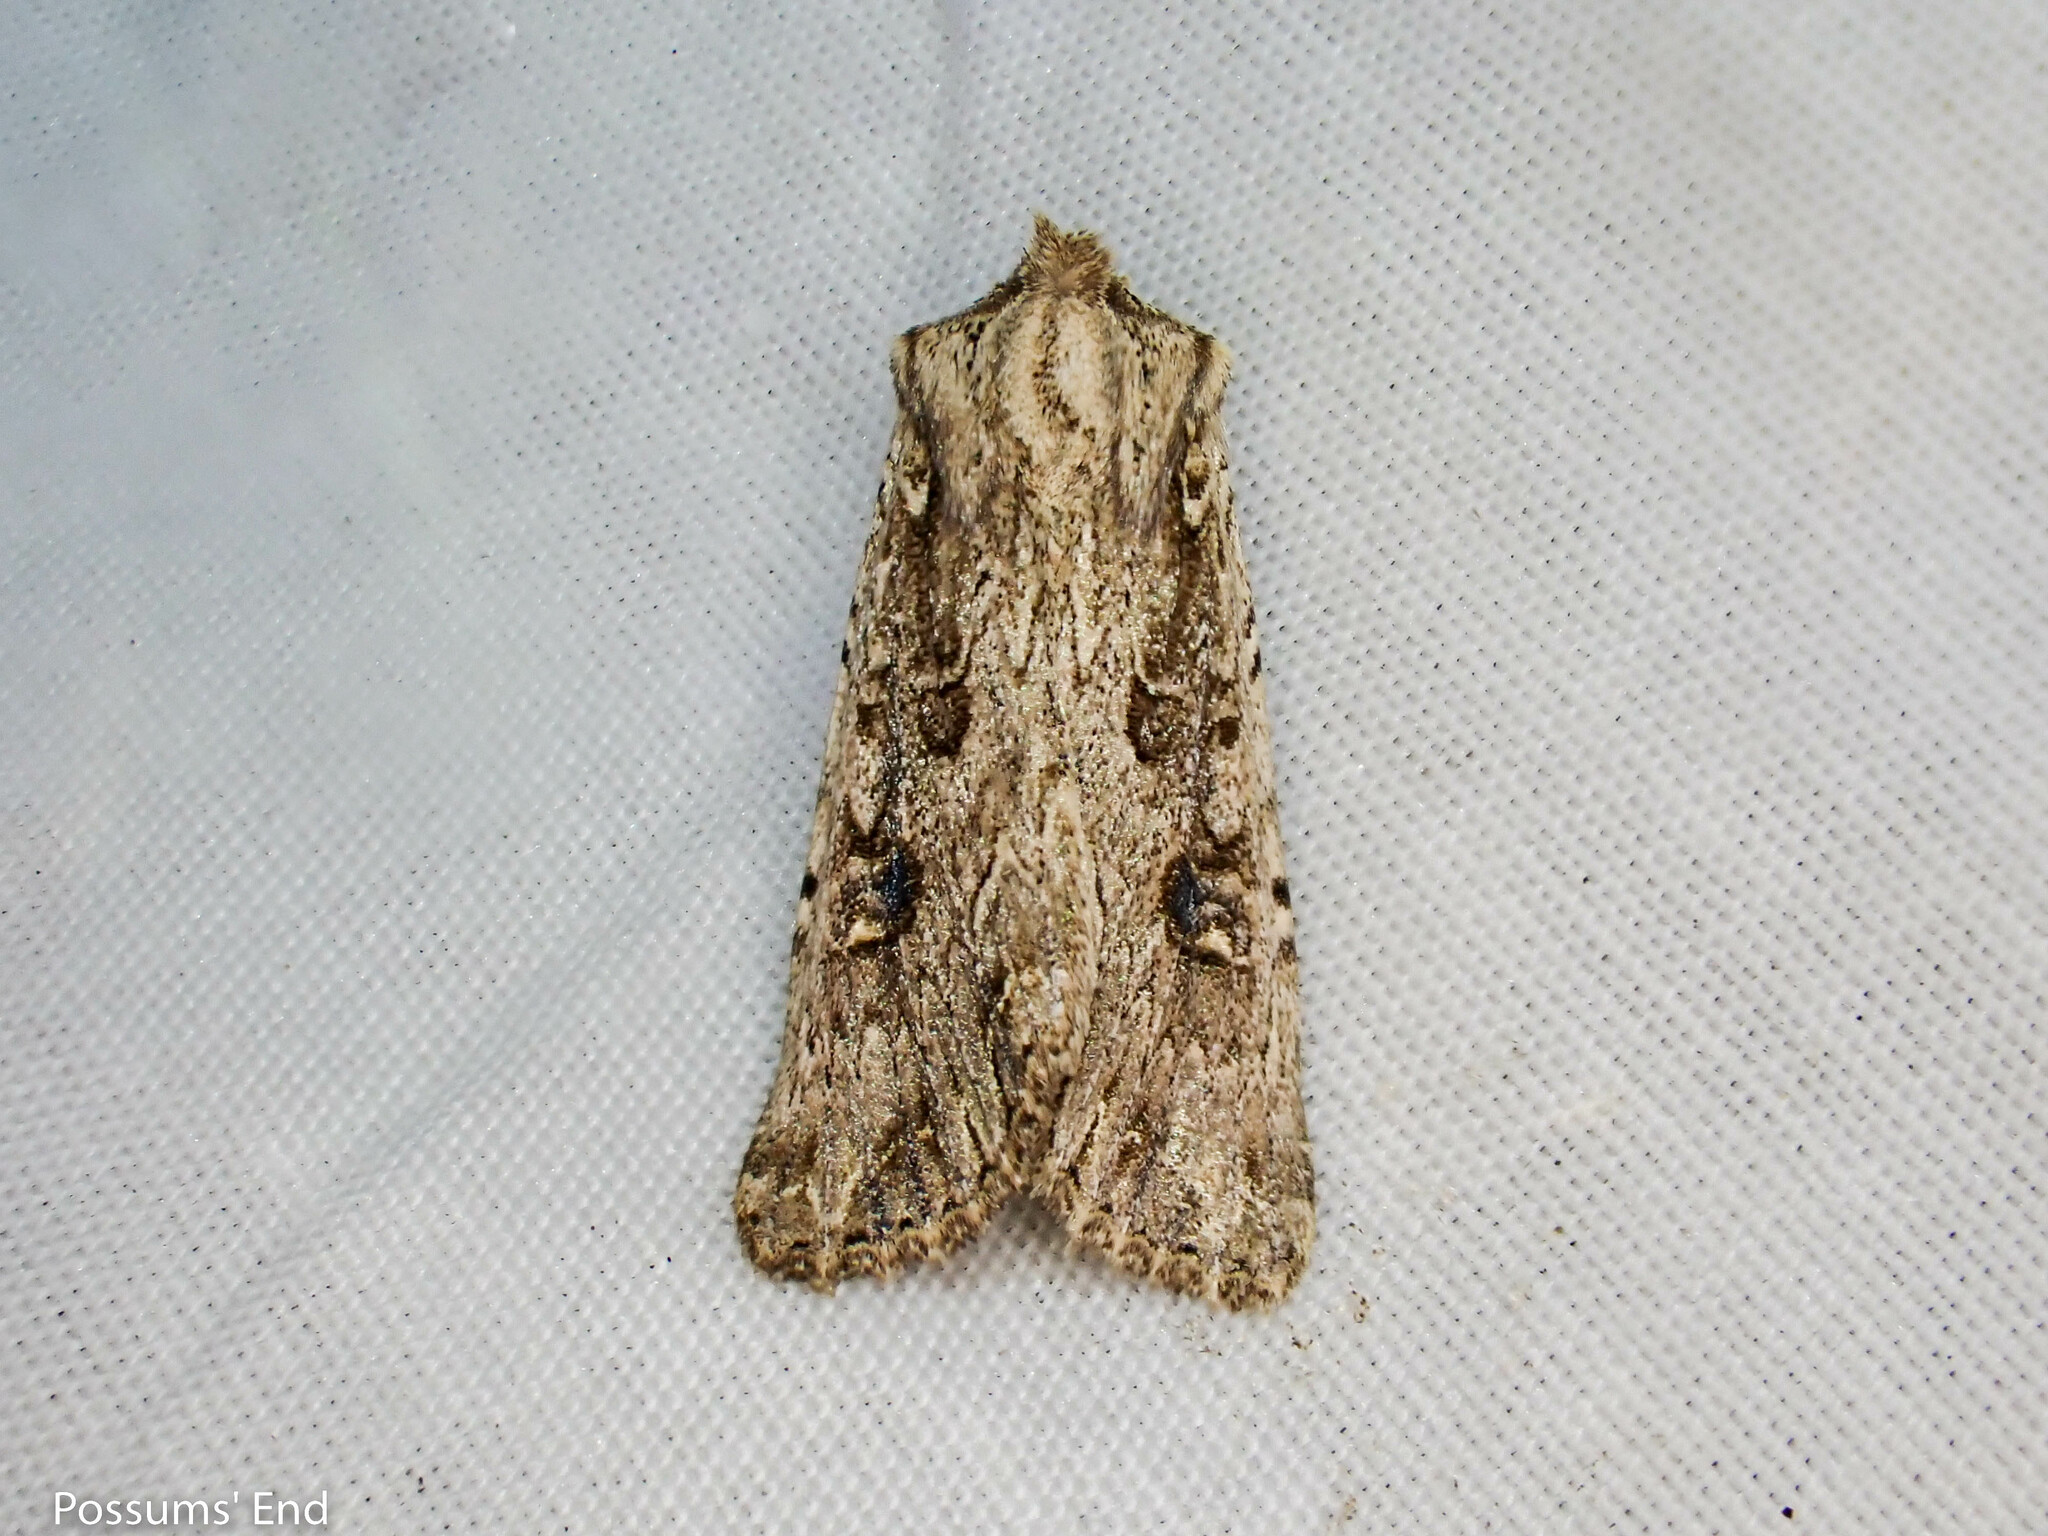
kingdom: Animalia
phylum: Arthropoda
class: Insecta
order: Lepidoptera
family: Noctuidae
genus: Ichneutica
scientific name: Ichneutica lignana
